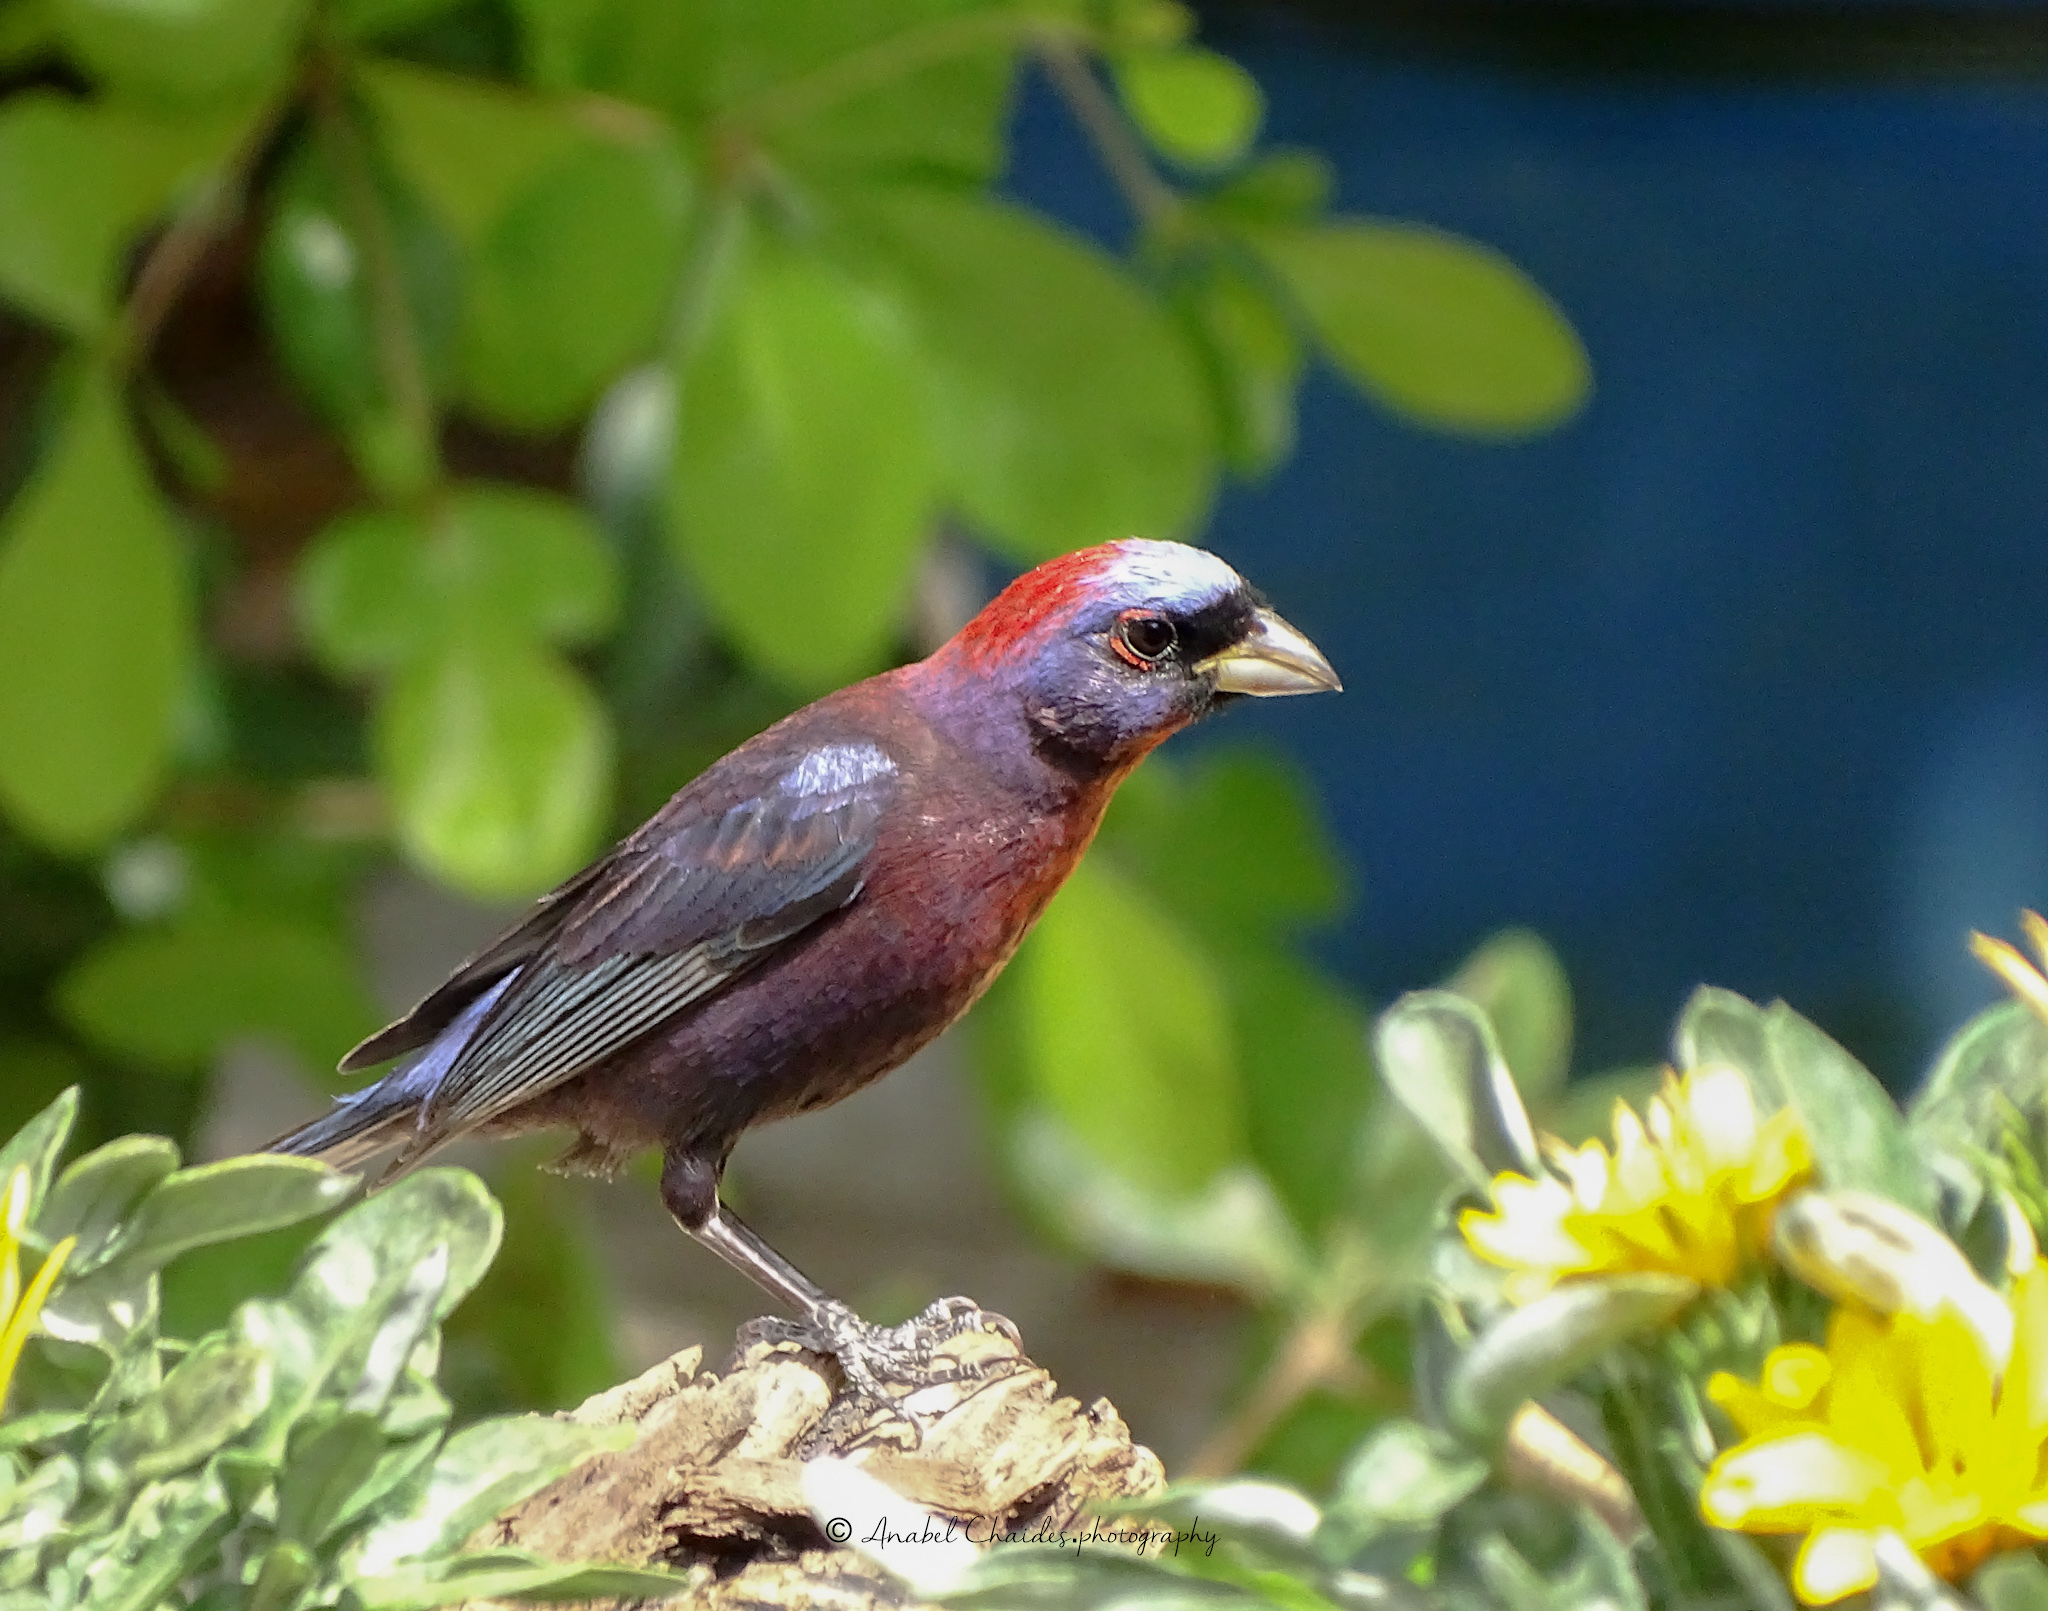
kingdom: Animalia
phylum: Chordata
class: Aves
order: Passeriformes
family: Cardinalidae
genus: Passerina
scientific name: Passerina versicolor
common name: Varied bunting
